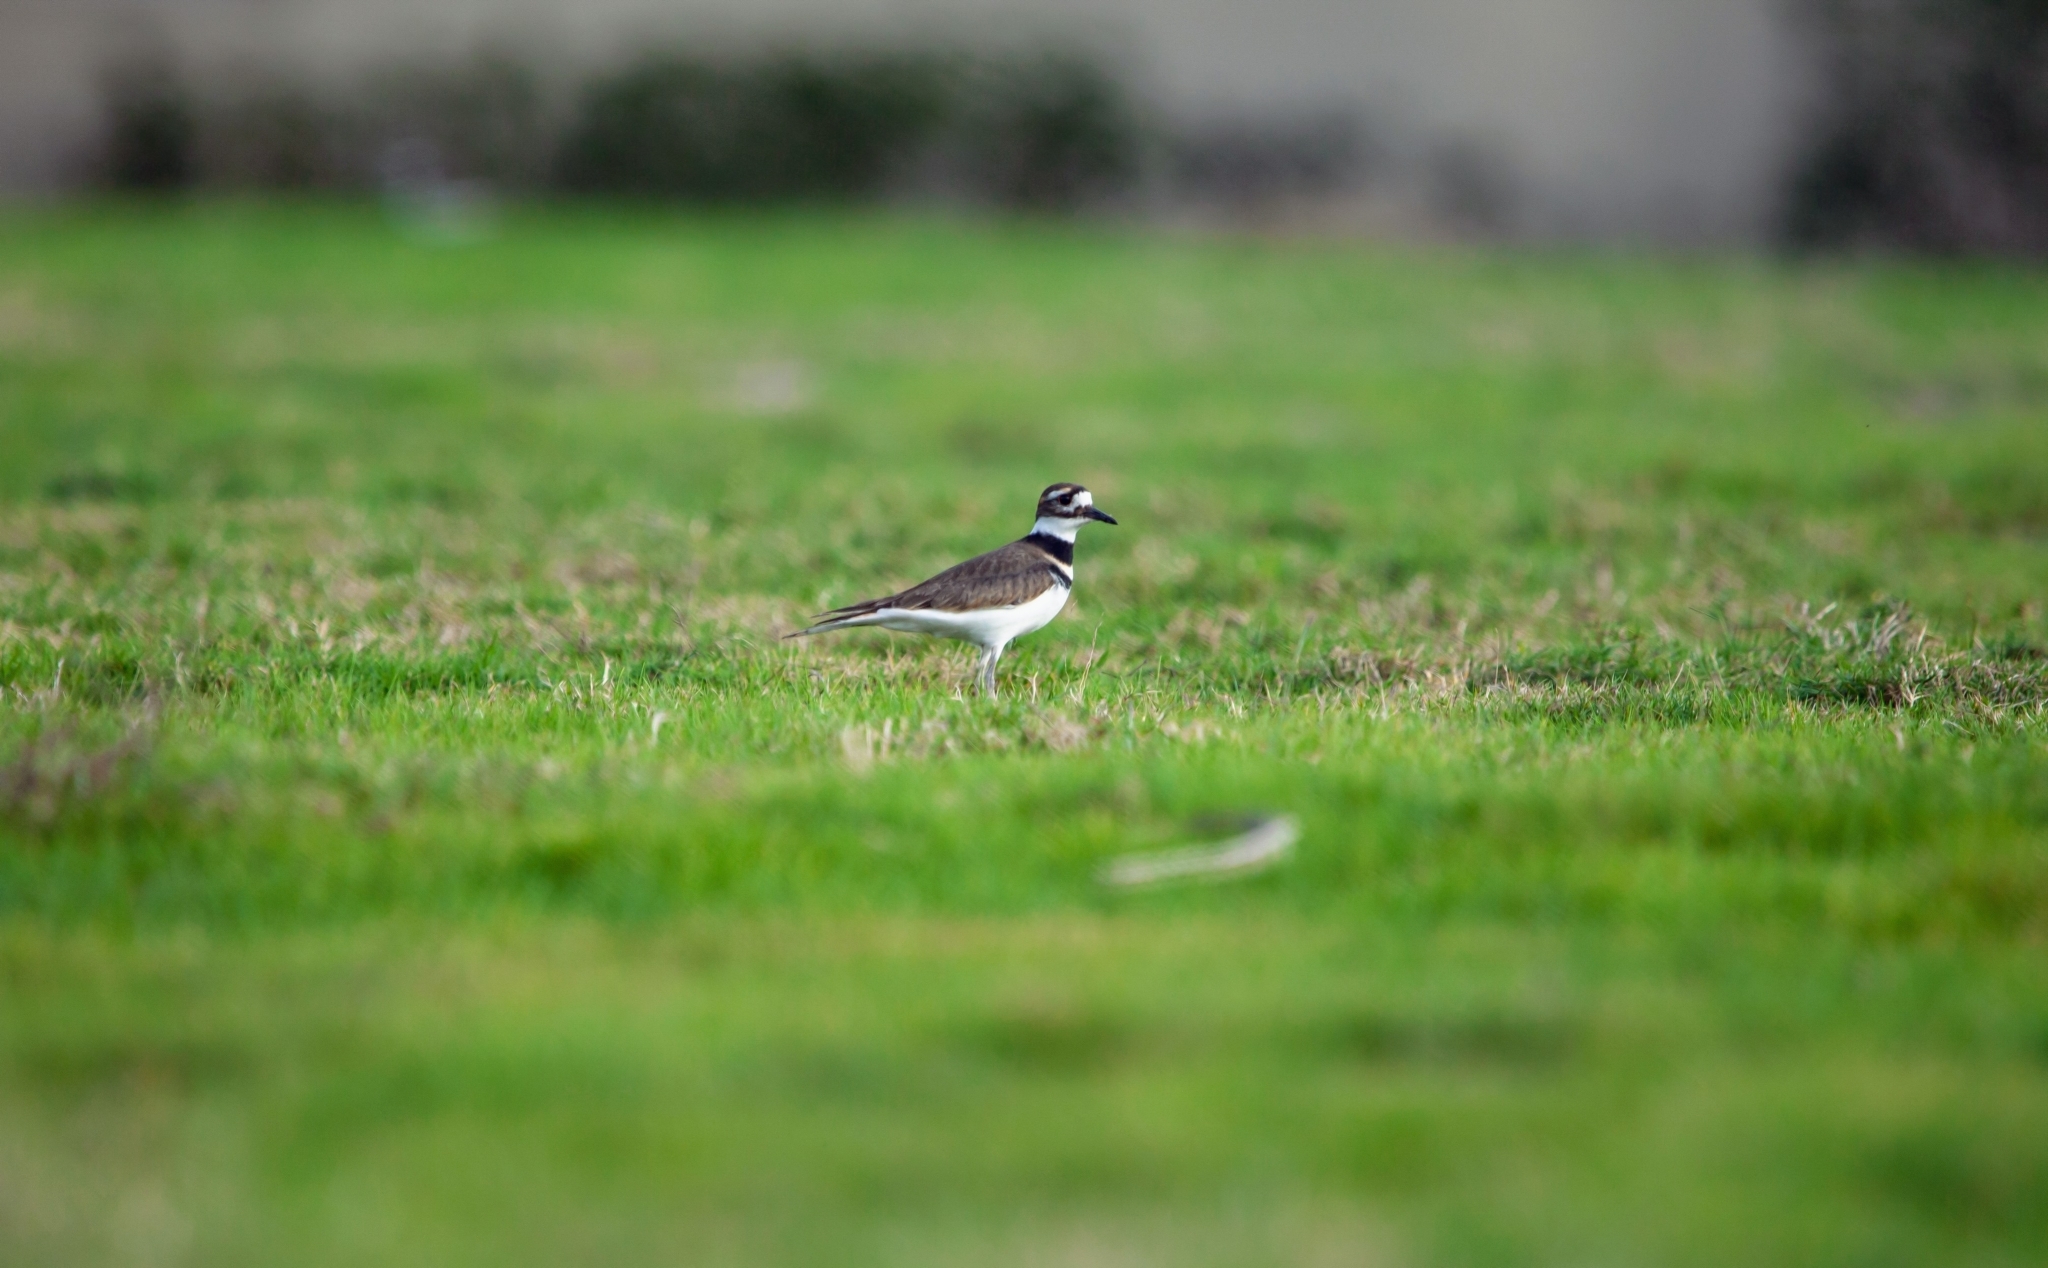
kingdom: Animalia
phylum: Chordata
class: Aves
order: Charadriiformes
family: Charadriidae
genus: Charadrius
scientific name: Charadrius vociferus
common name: Killdeer
